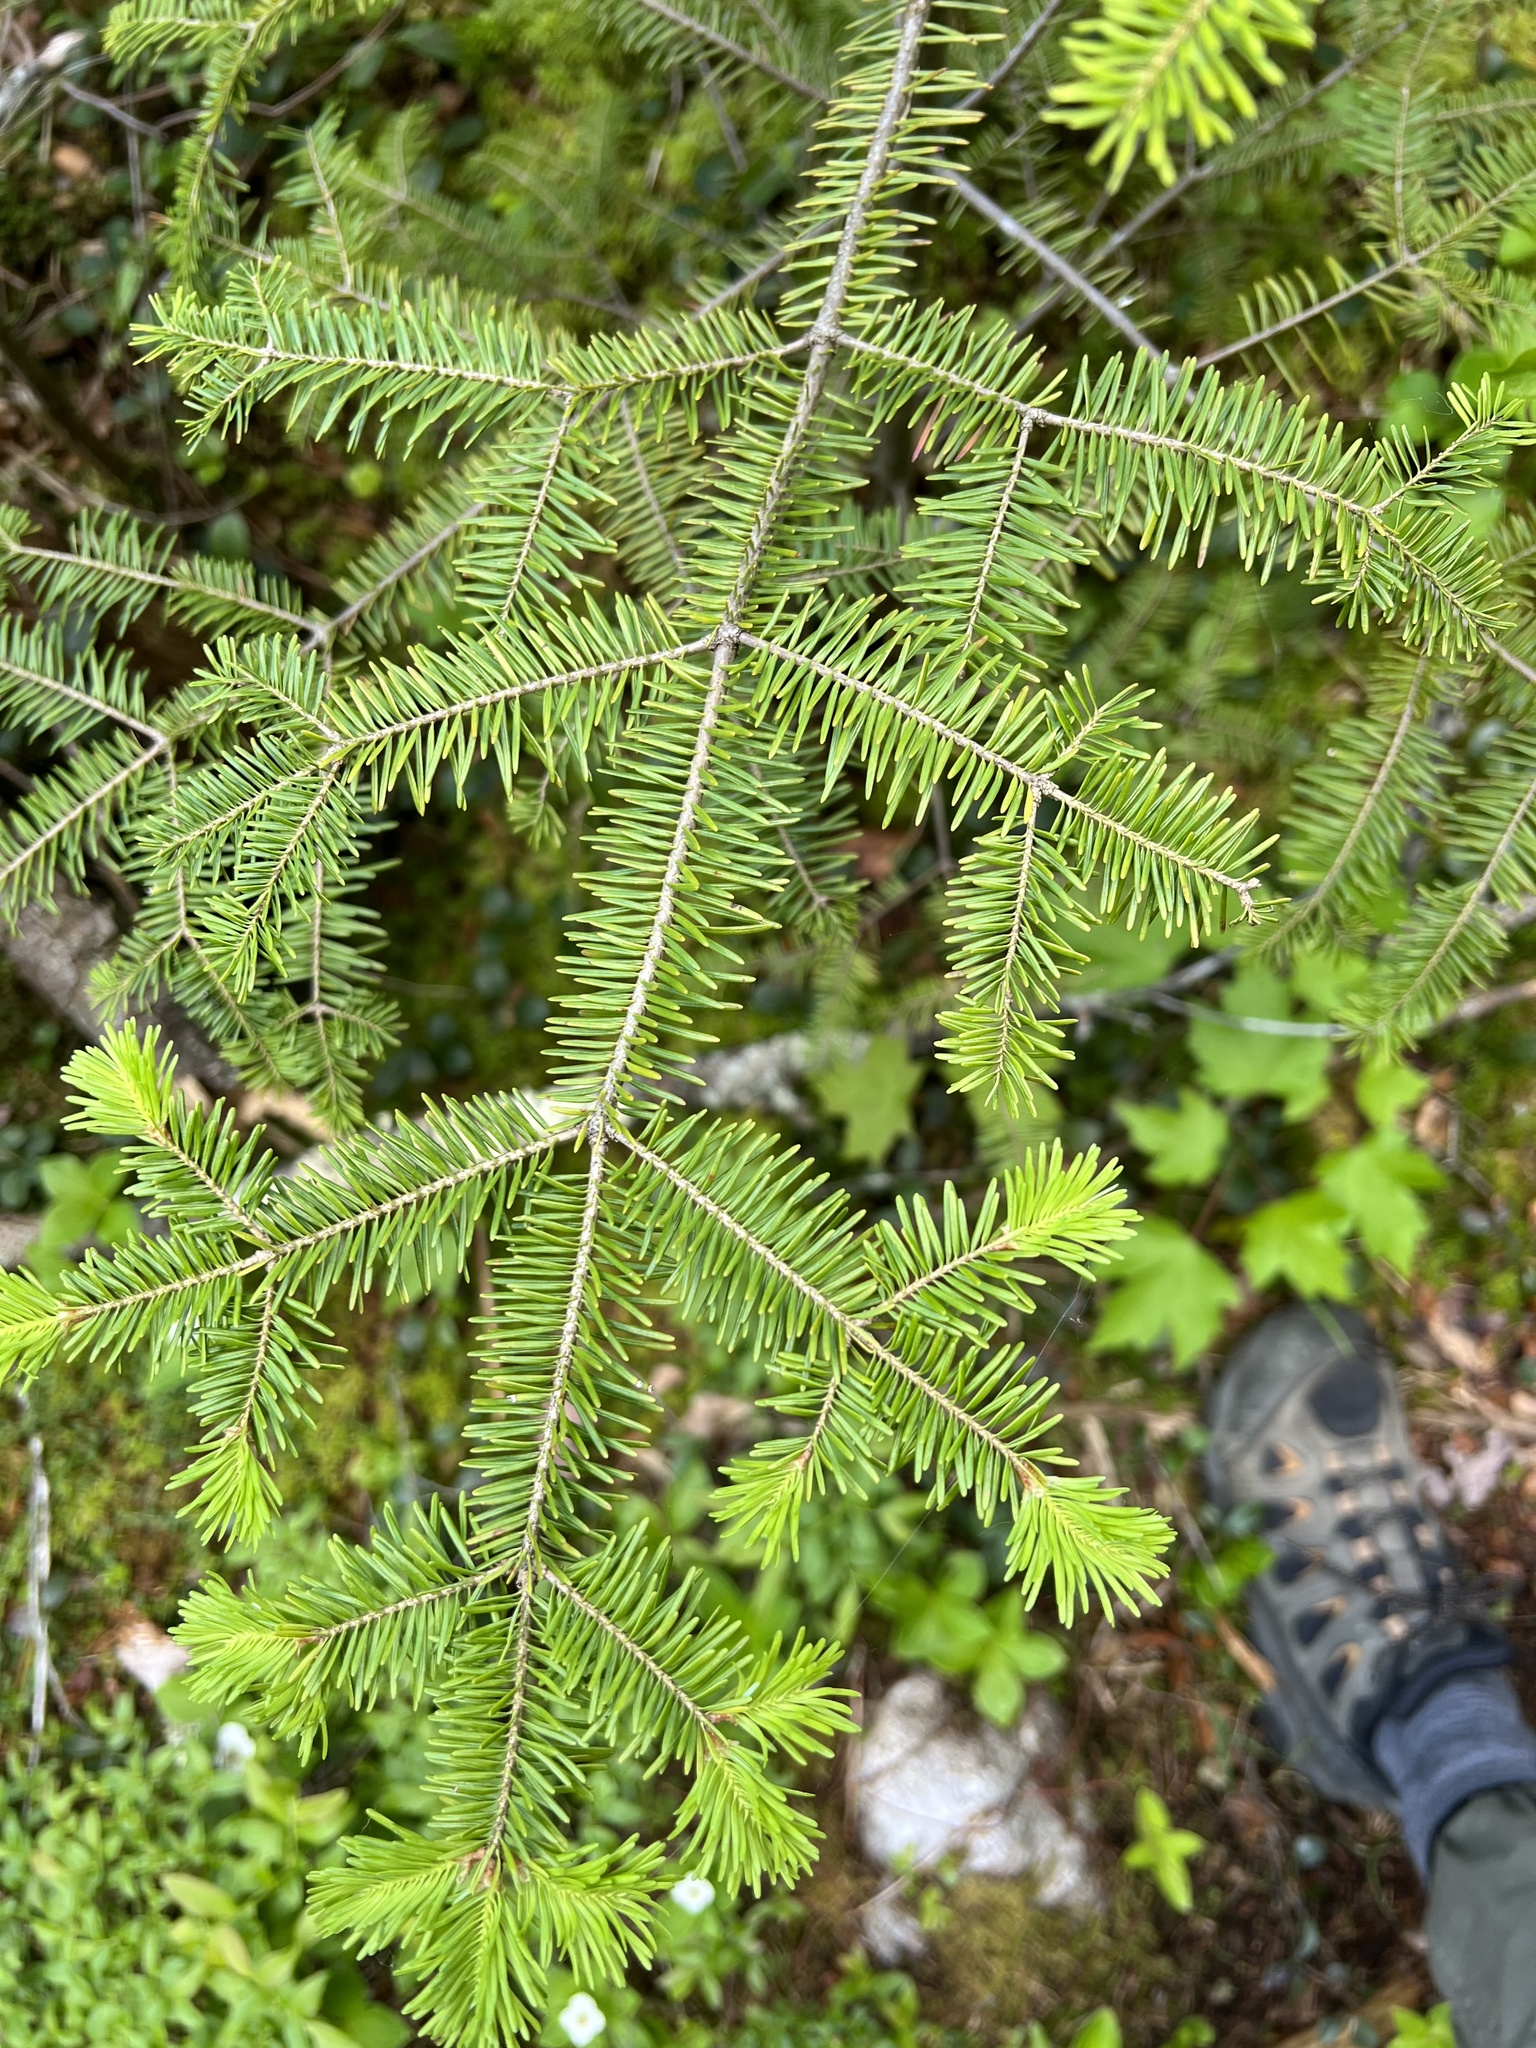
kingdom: Plantae
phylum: Tracheophyta
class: Pinopsida
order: Pinales
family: Pinaceae
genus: Abies
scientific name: Abies balsamea
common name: Balsam fir
